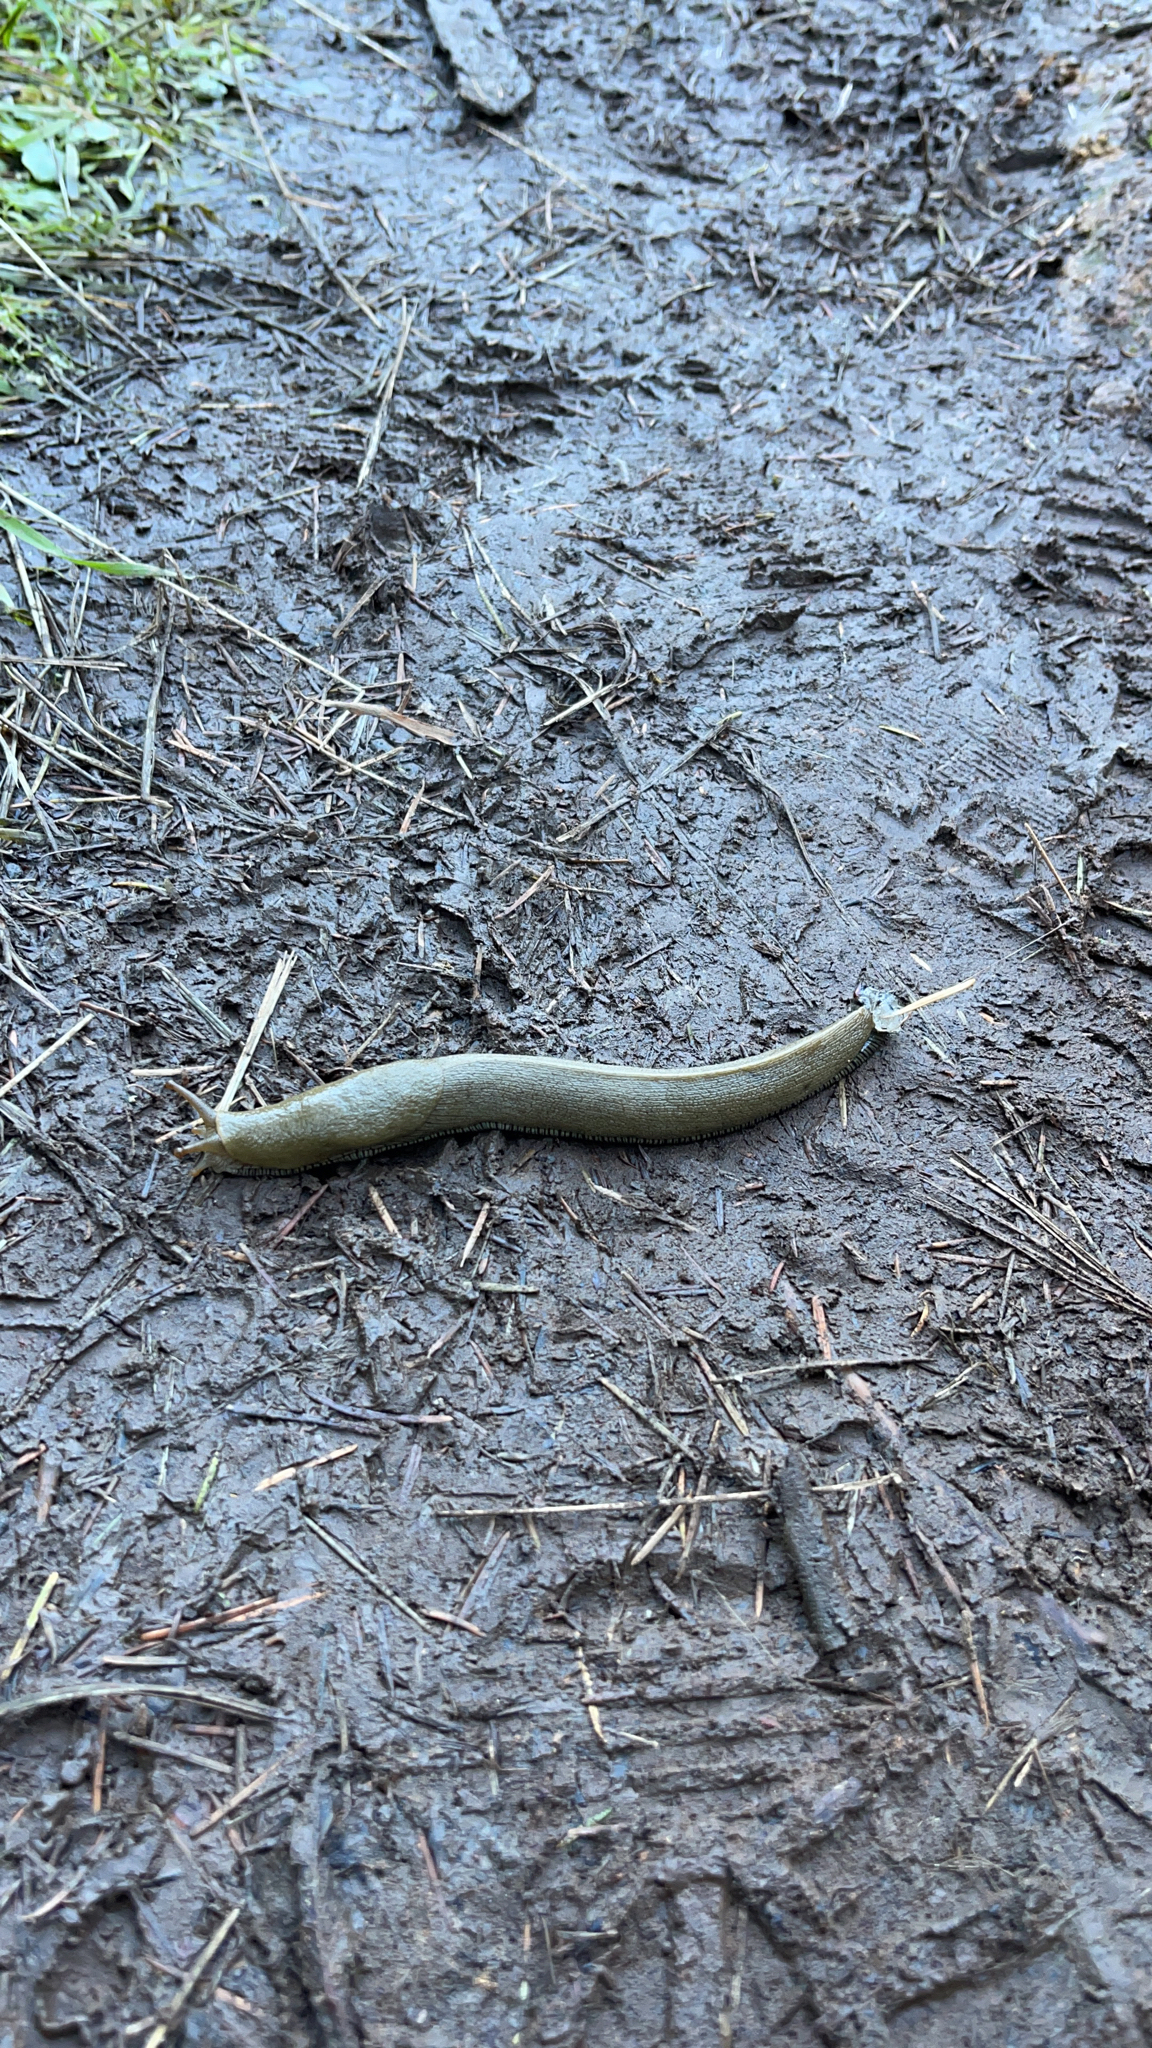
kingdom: Animalia
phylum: Mollusca
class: Gastropoda
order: Stylommatophora
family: Ariolimacidae
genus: Ariolimax
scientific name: Ariolimax buttoni
